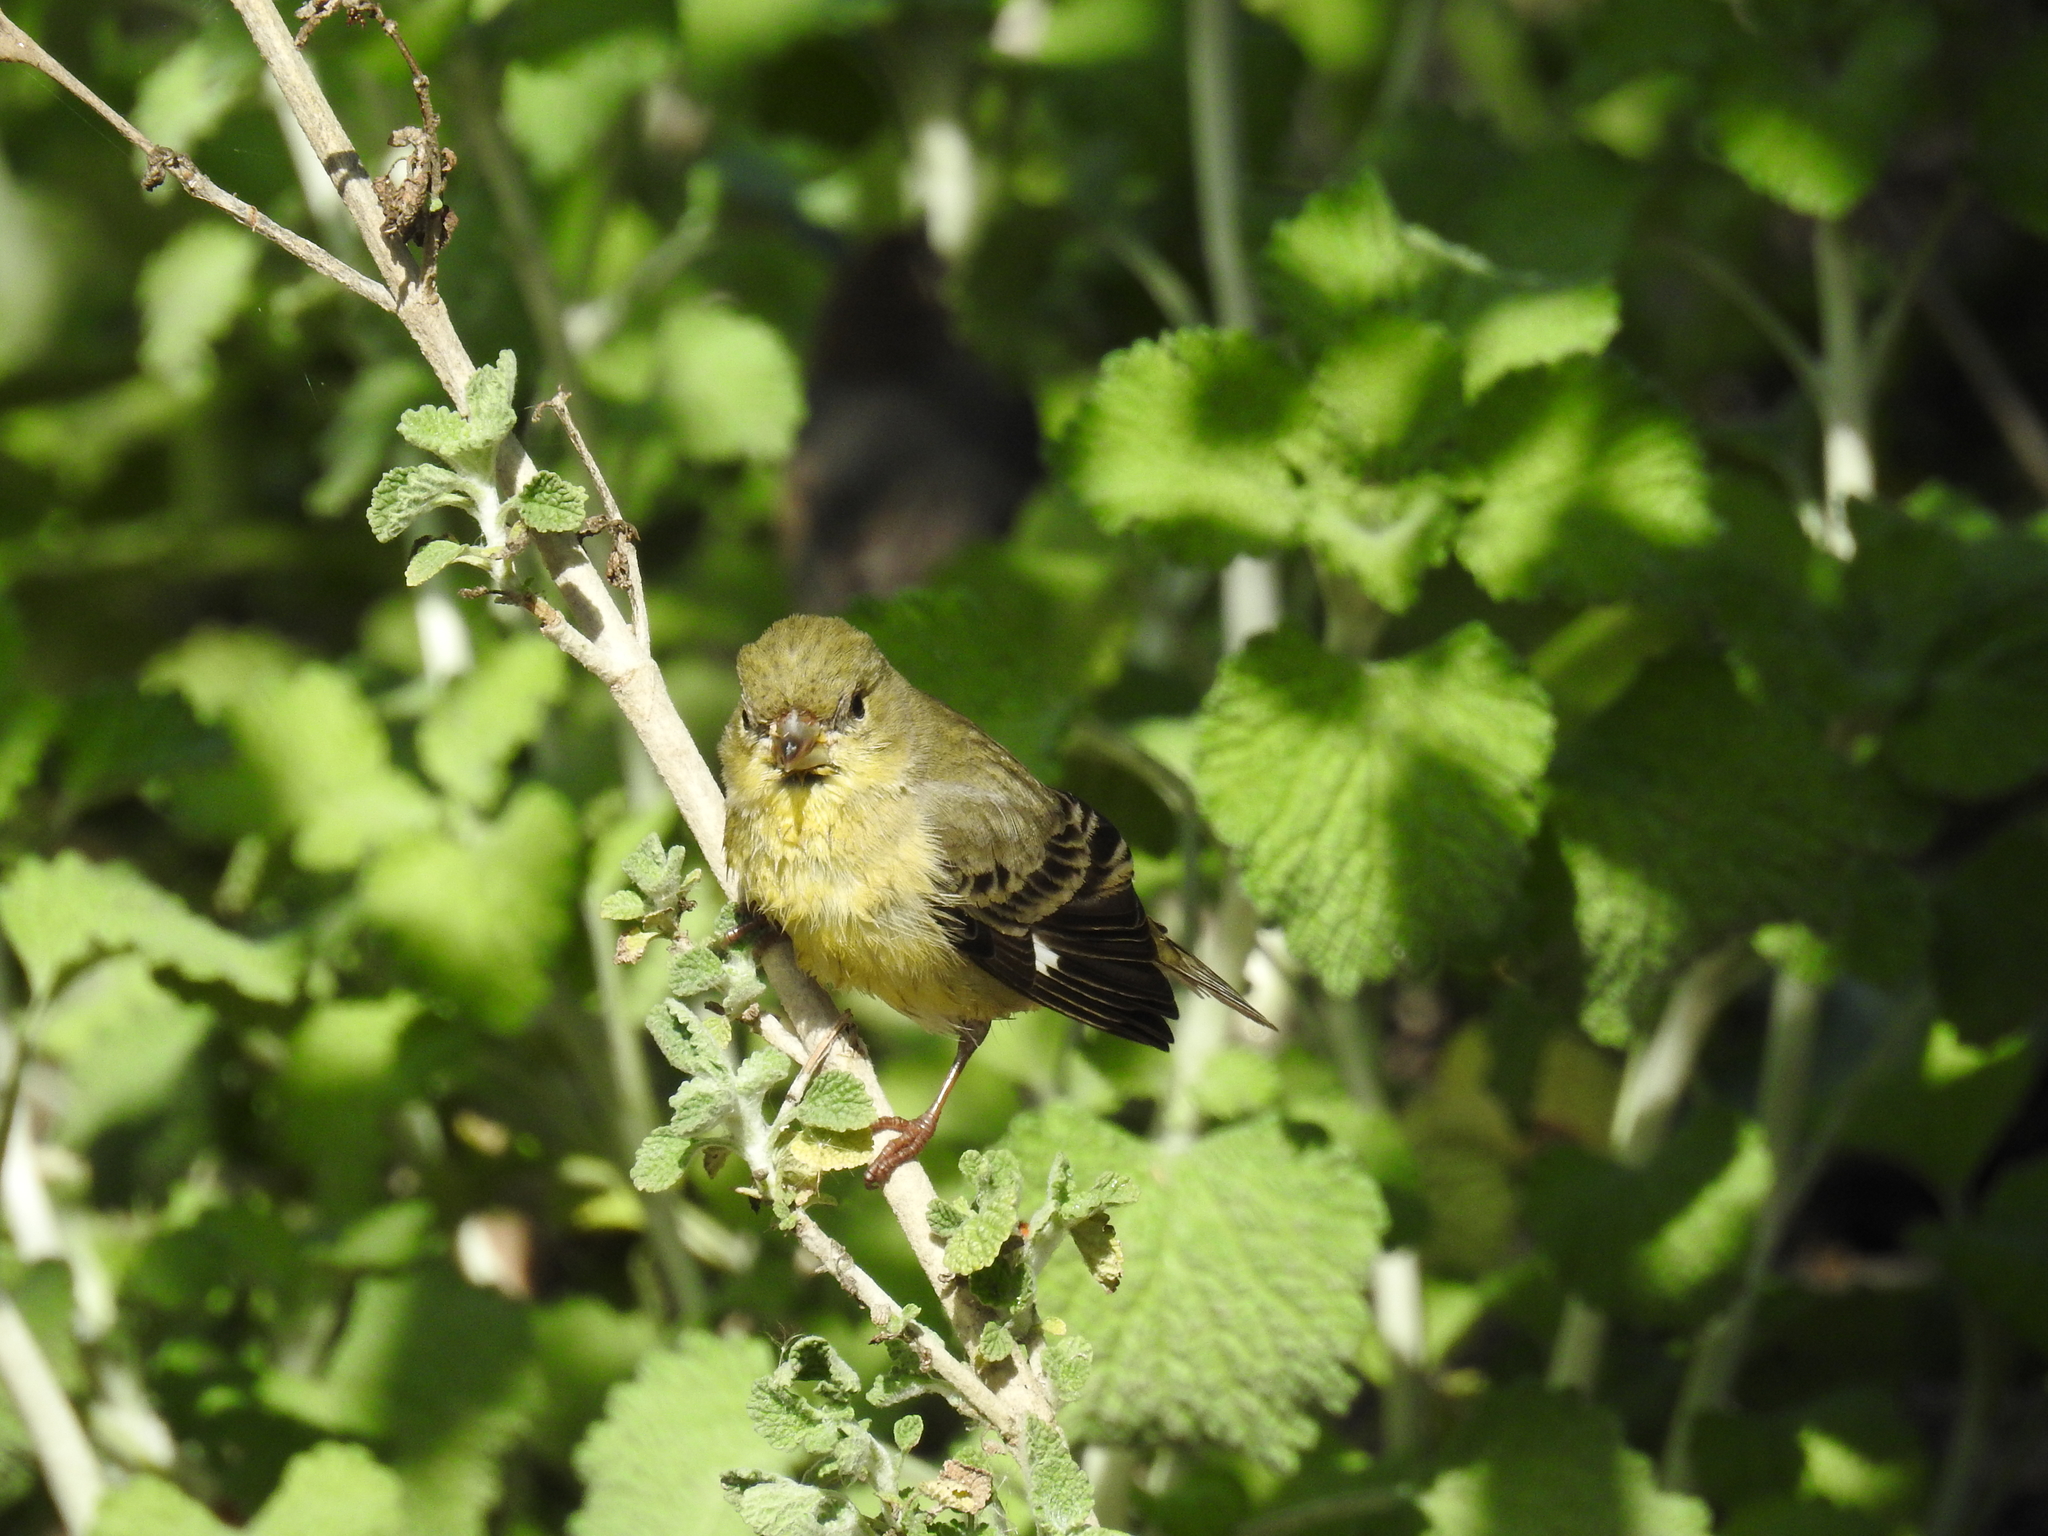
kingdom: Animalia
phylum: Chordata
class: Aves
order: Passeriformes
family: Fringillidae
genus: Spinus
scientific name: Spinus psaltria
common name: Lesser goldfinch
